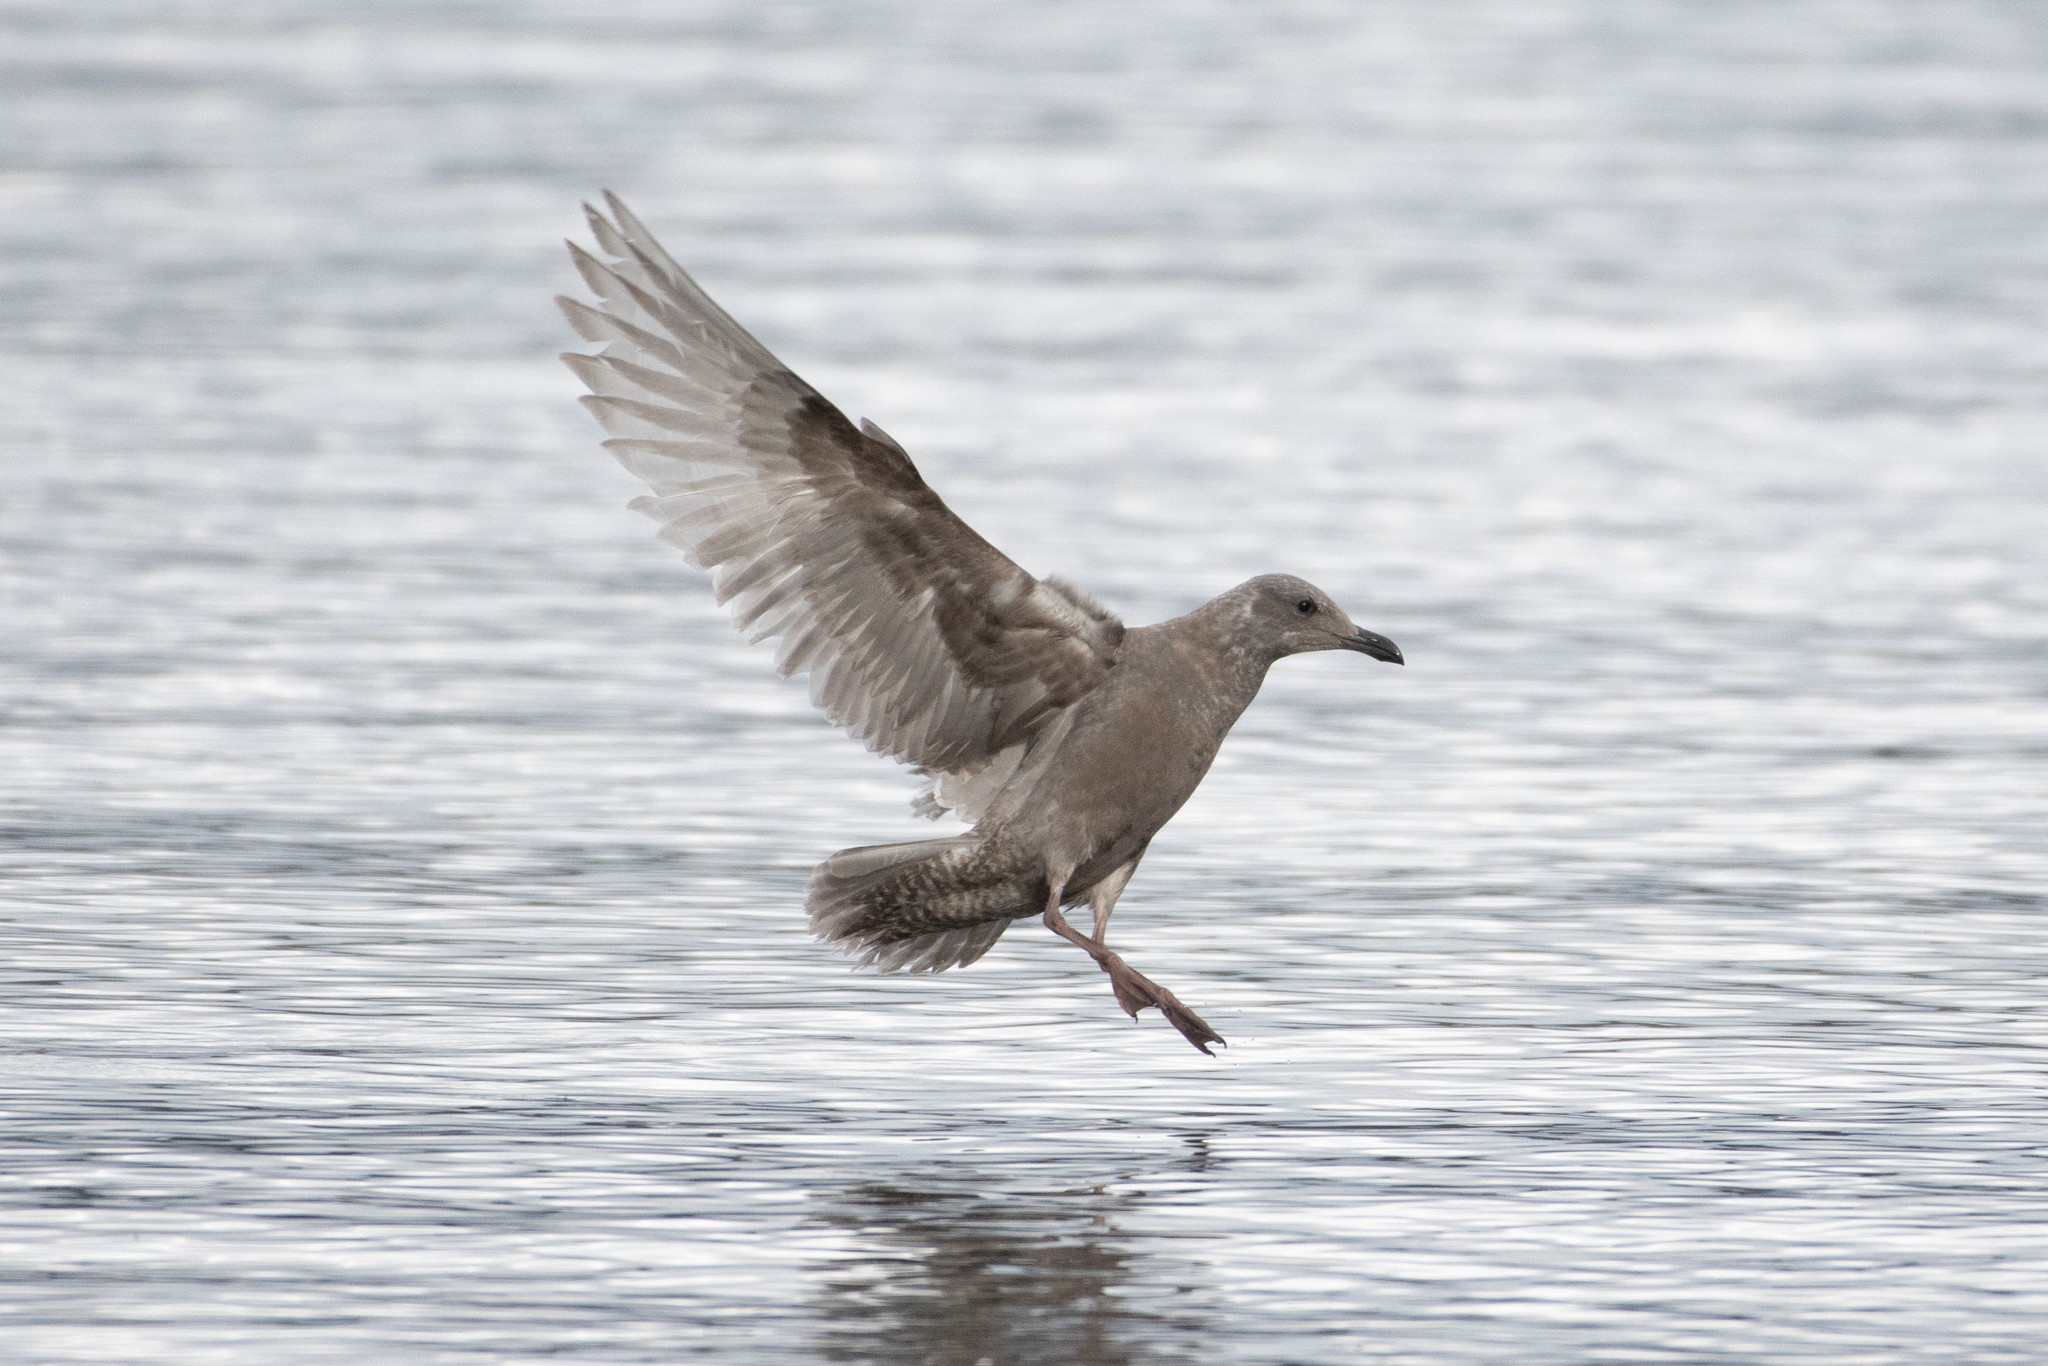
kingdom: Animalia
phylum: Chordata
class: Aves
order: Charadriiformes
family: Laridae
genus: Larus
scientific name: Larus
